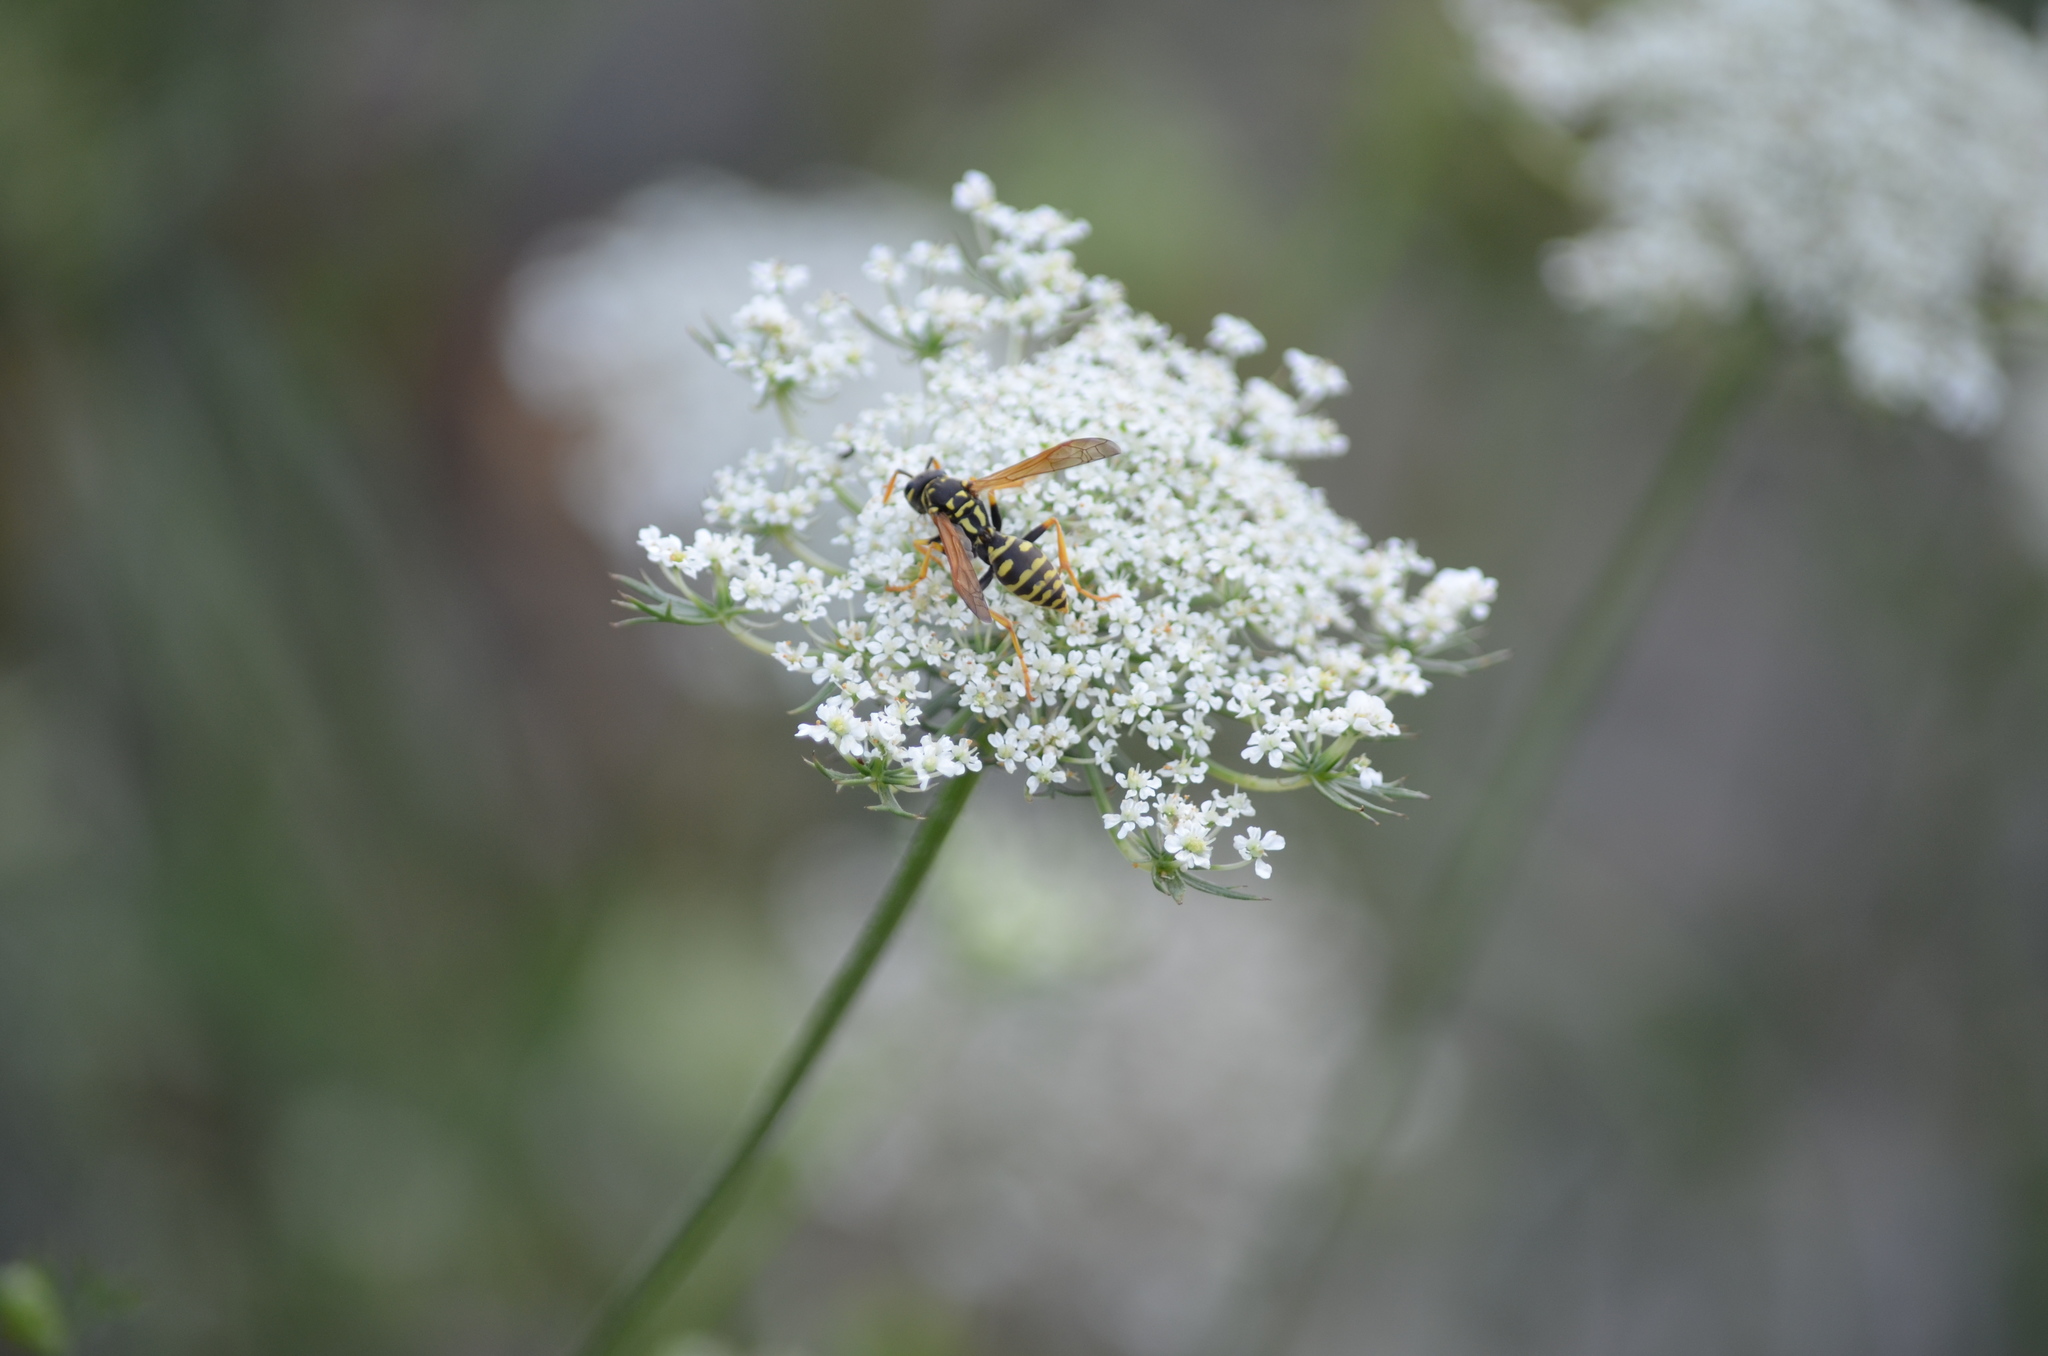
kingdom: Animalia
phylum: Arthropoda
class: Insecta
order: Hymenoptera
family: Eumenidae
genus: Polistes
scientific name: Polistes dominula
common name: Paper wasp
